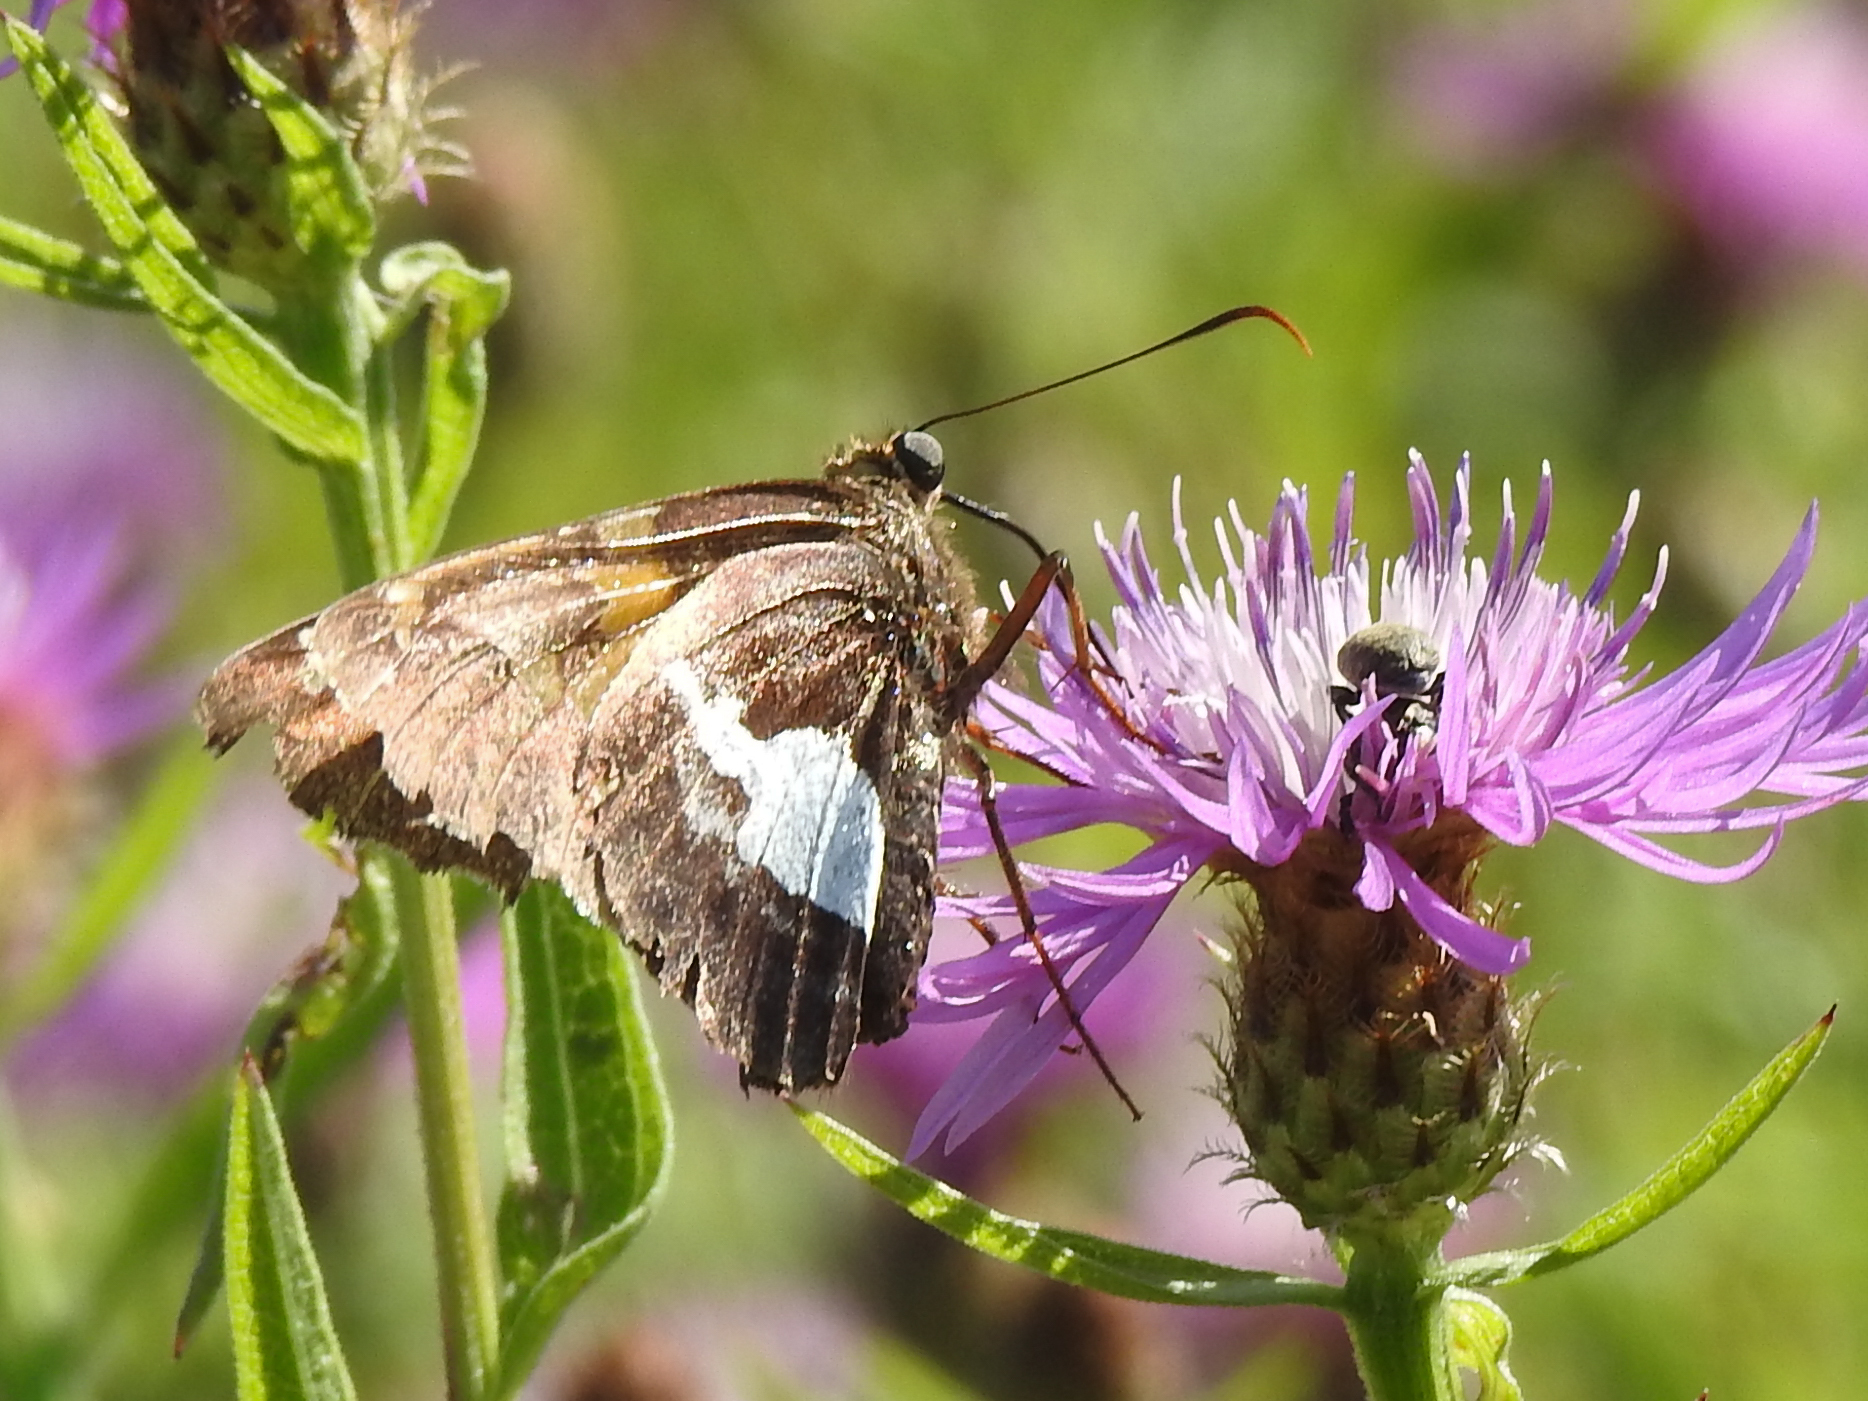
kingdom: Animalia
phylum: Arthropoda
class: Insecta
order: Lepidoptera
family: Hesperiidae
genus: Epargyreus
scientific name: Epargyreus clarus
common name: Silver-spotted skipper
